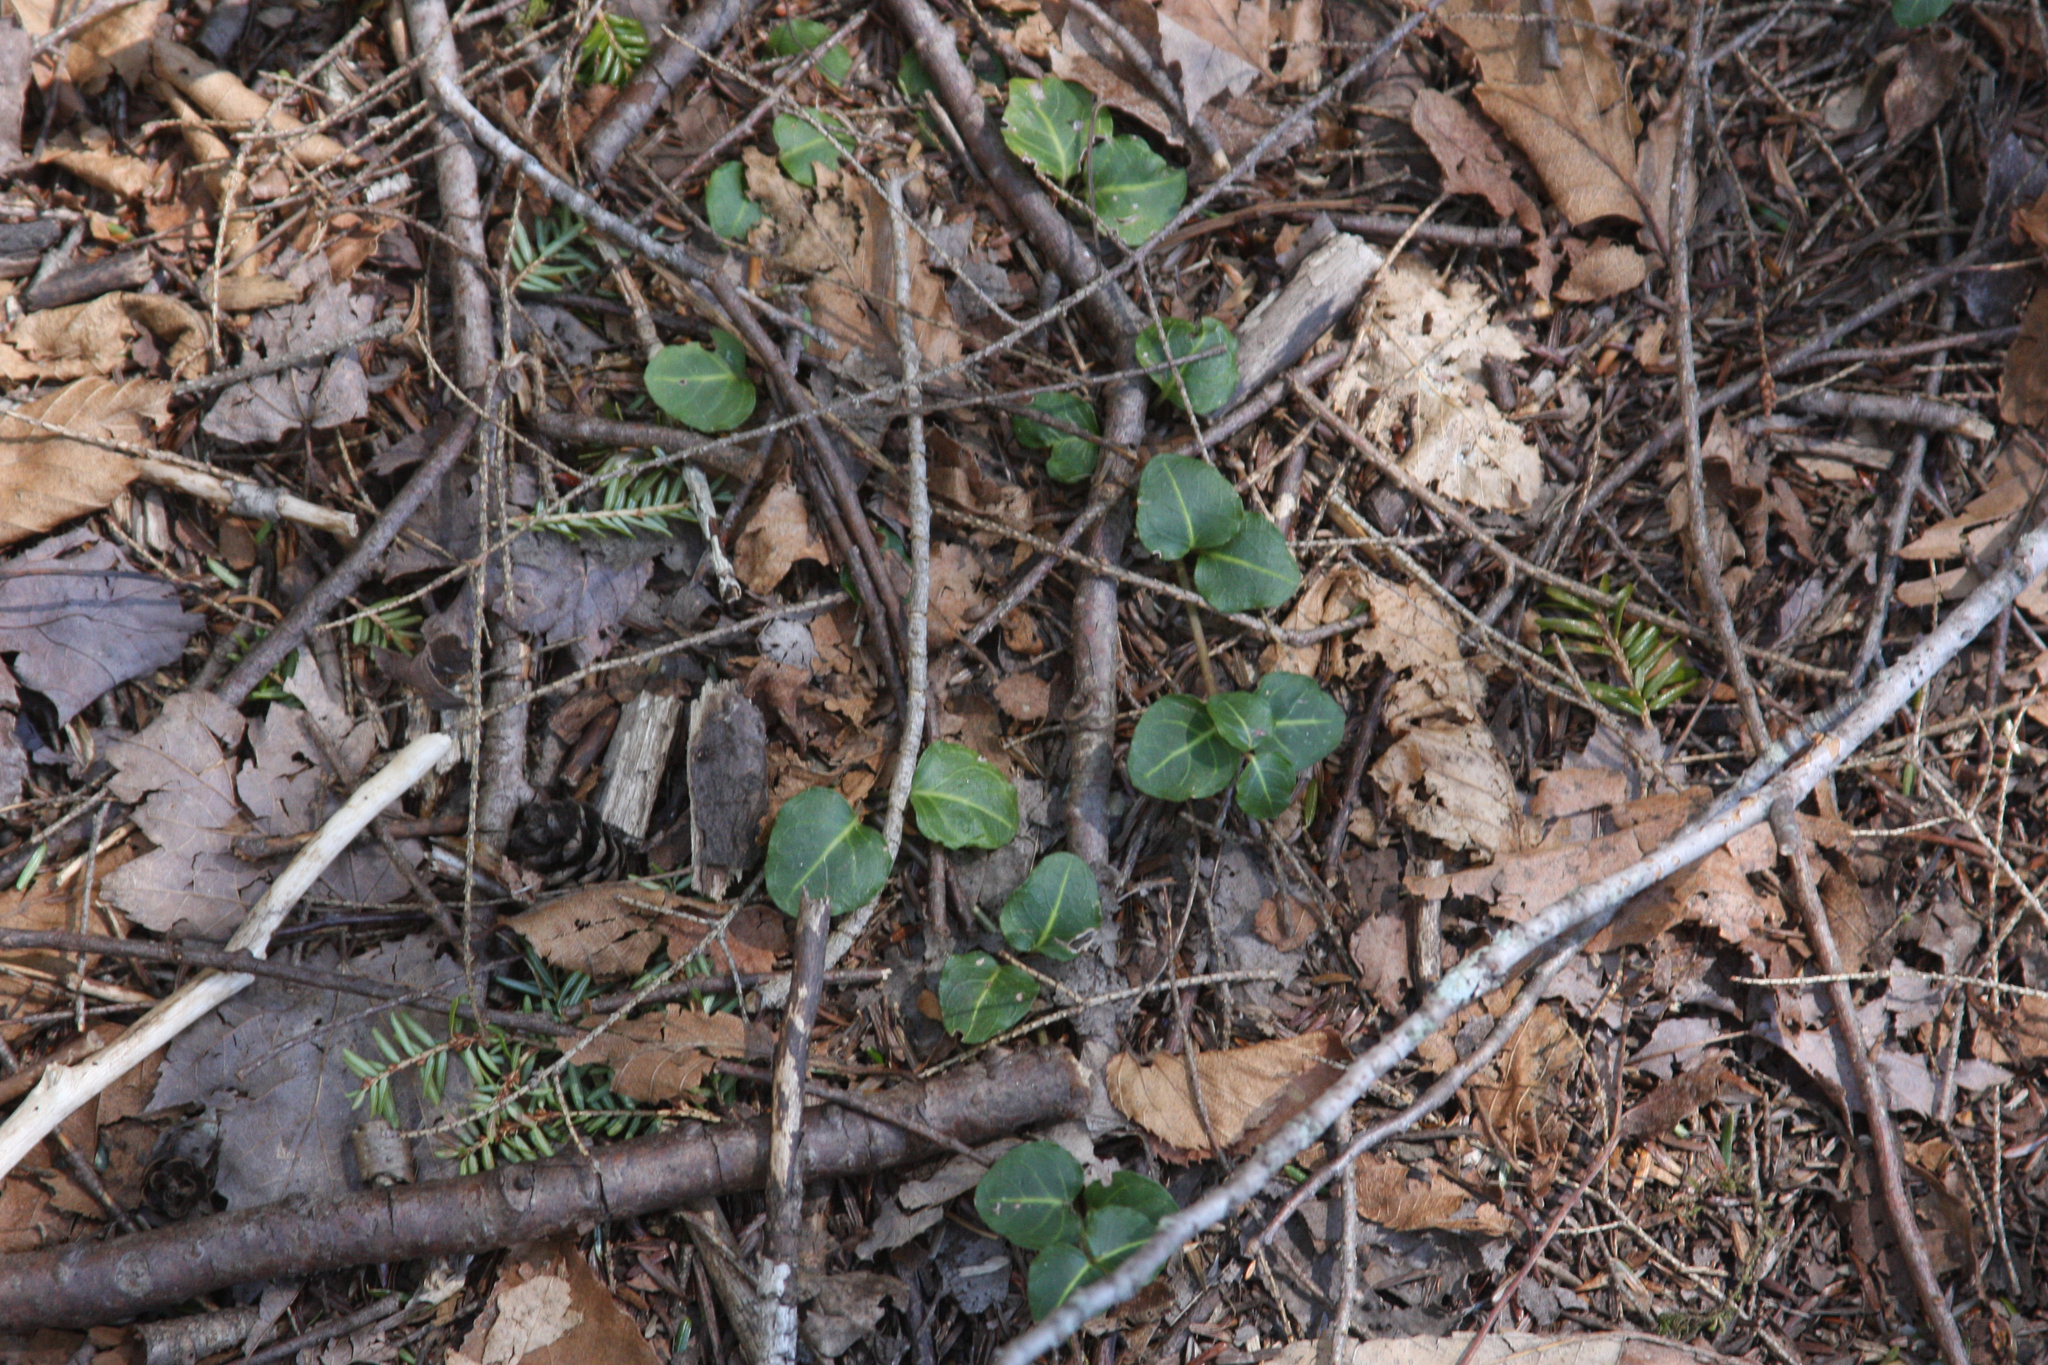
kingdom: Plantae
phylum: Tracheophyta
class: Magnoliopsida
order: Gentianales
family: Rubiaceae
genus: Mitchella
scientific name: Mitchella repens
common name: Partridge-berry
